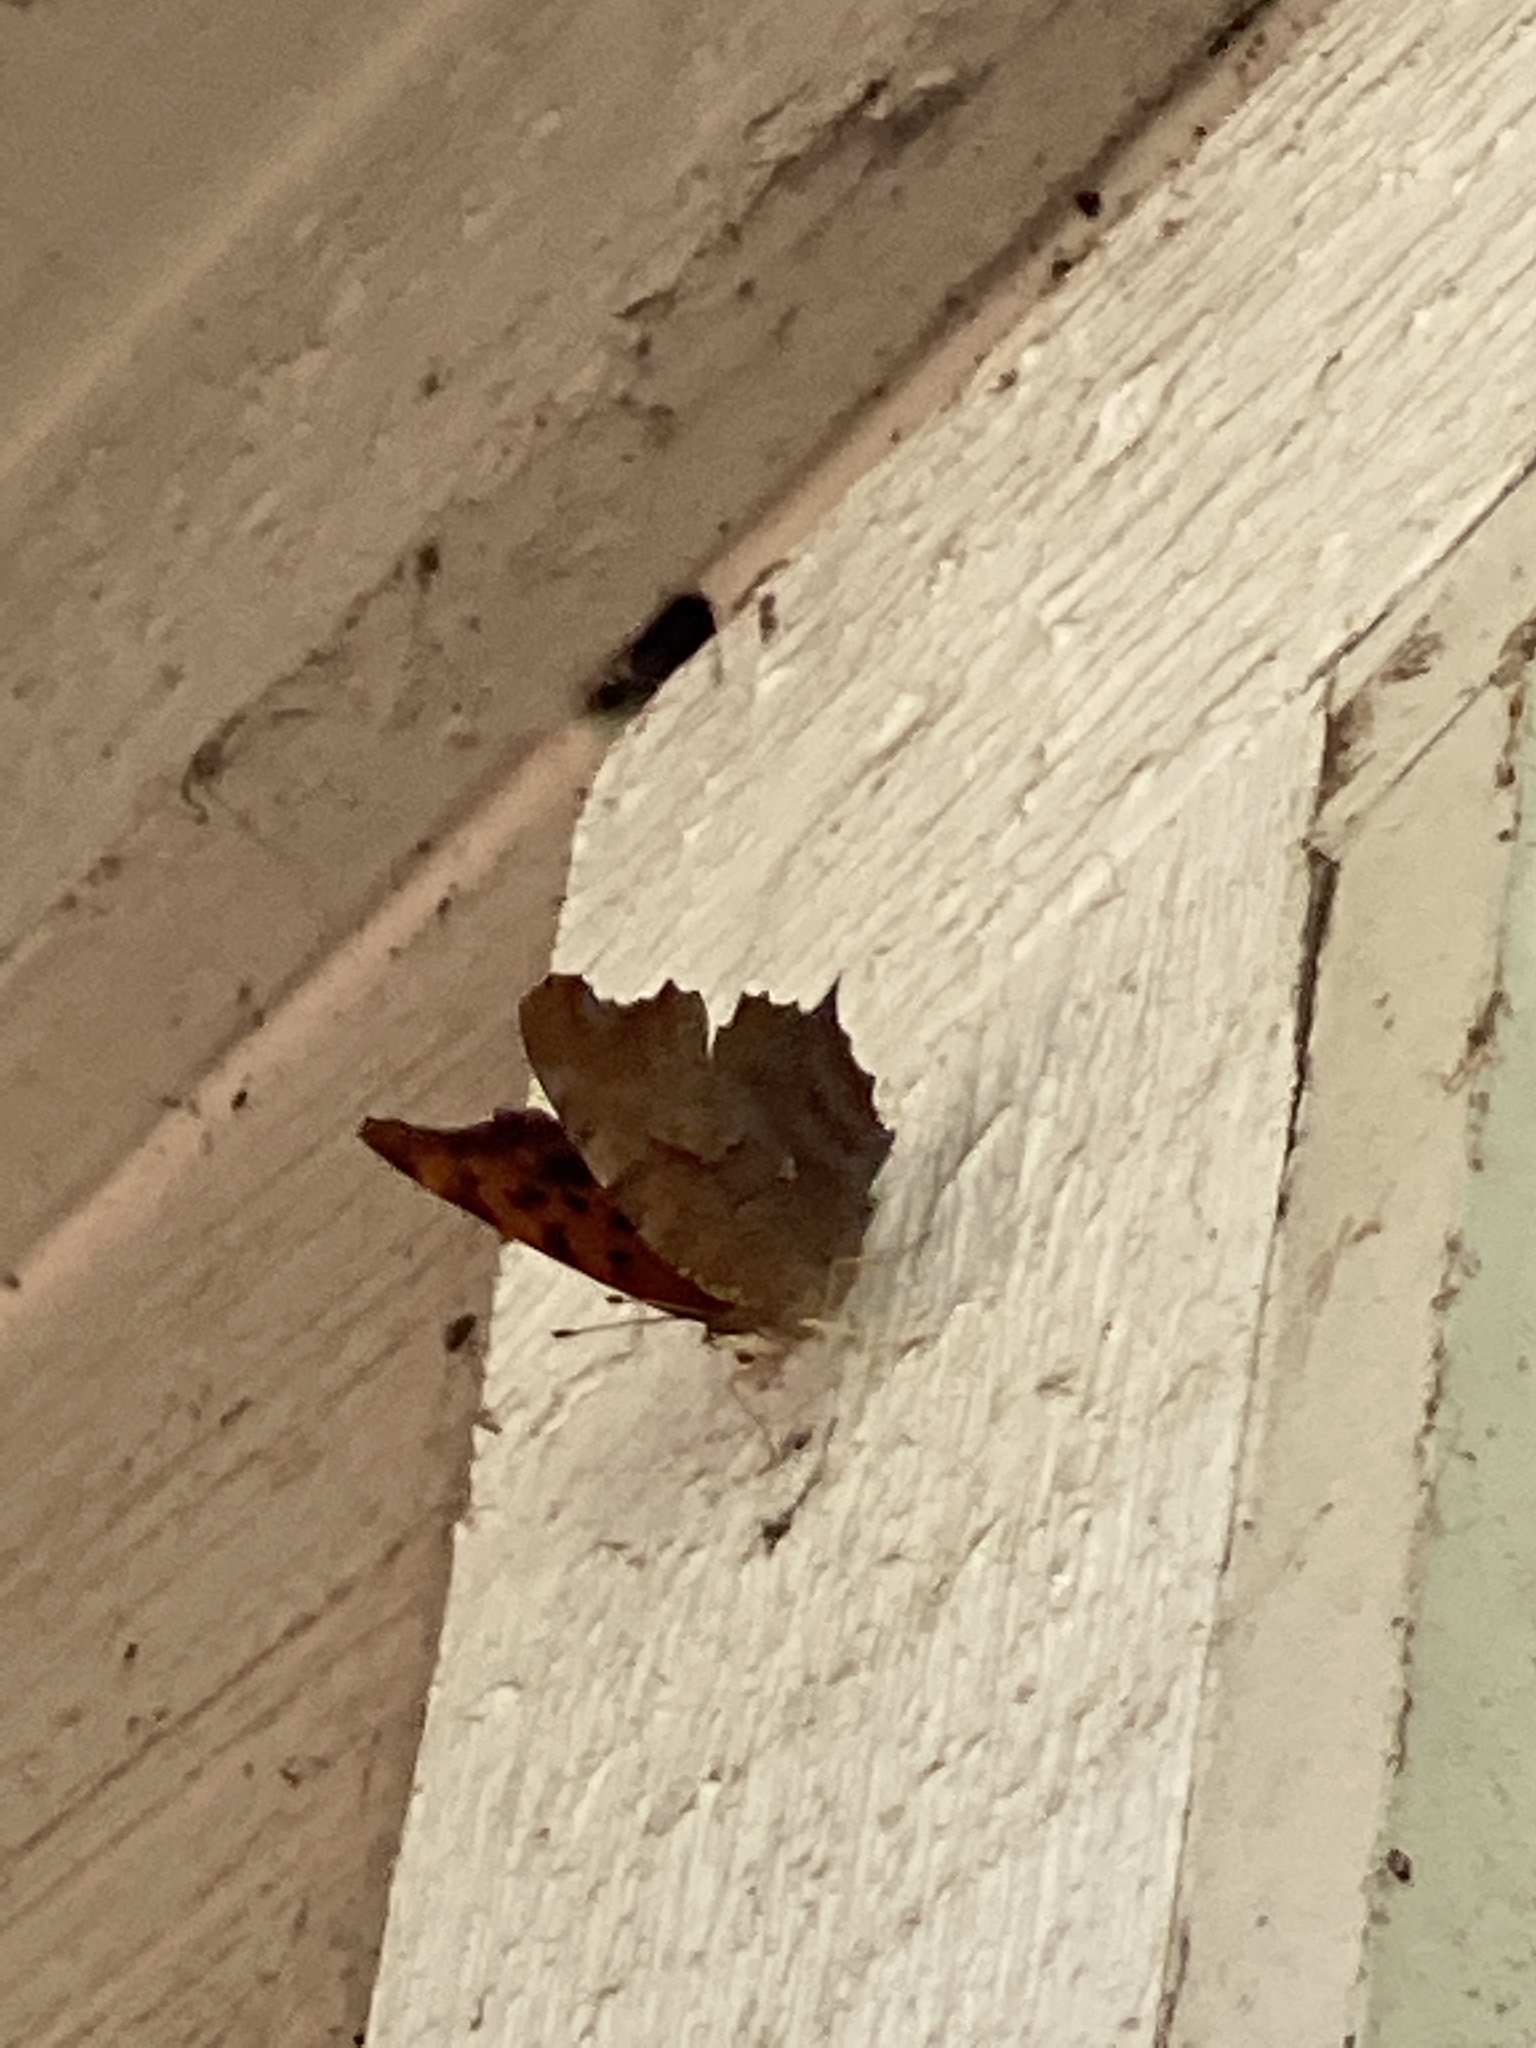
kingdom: Animalia
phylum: Arthropoda
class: Insecta
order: Lepidoptera
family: Nymphalidae
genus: Polygonia
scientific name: Polygonia interrogationis
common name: Question mark
